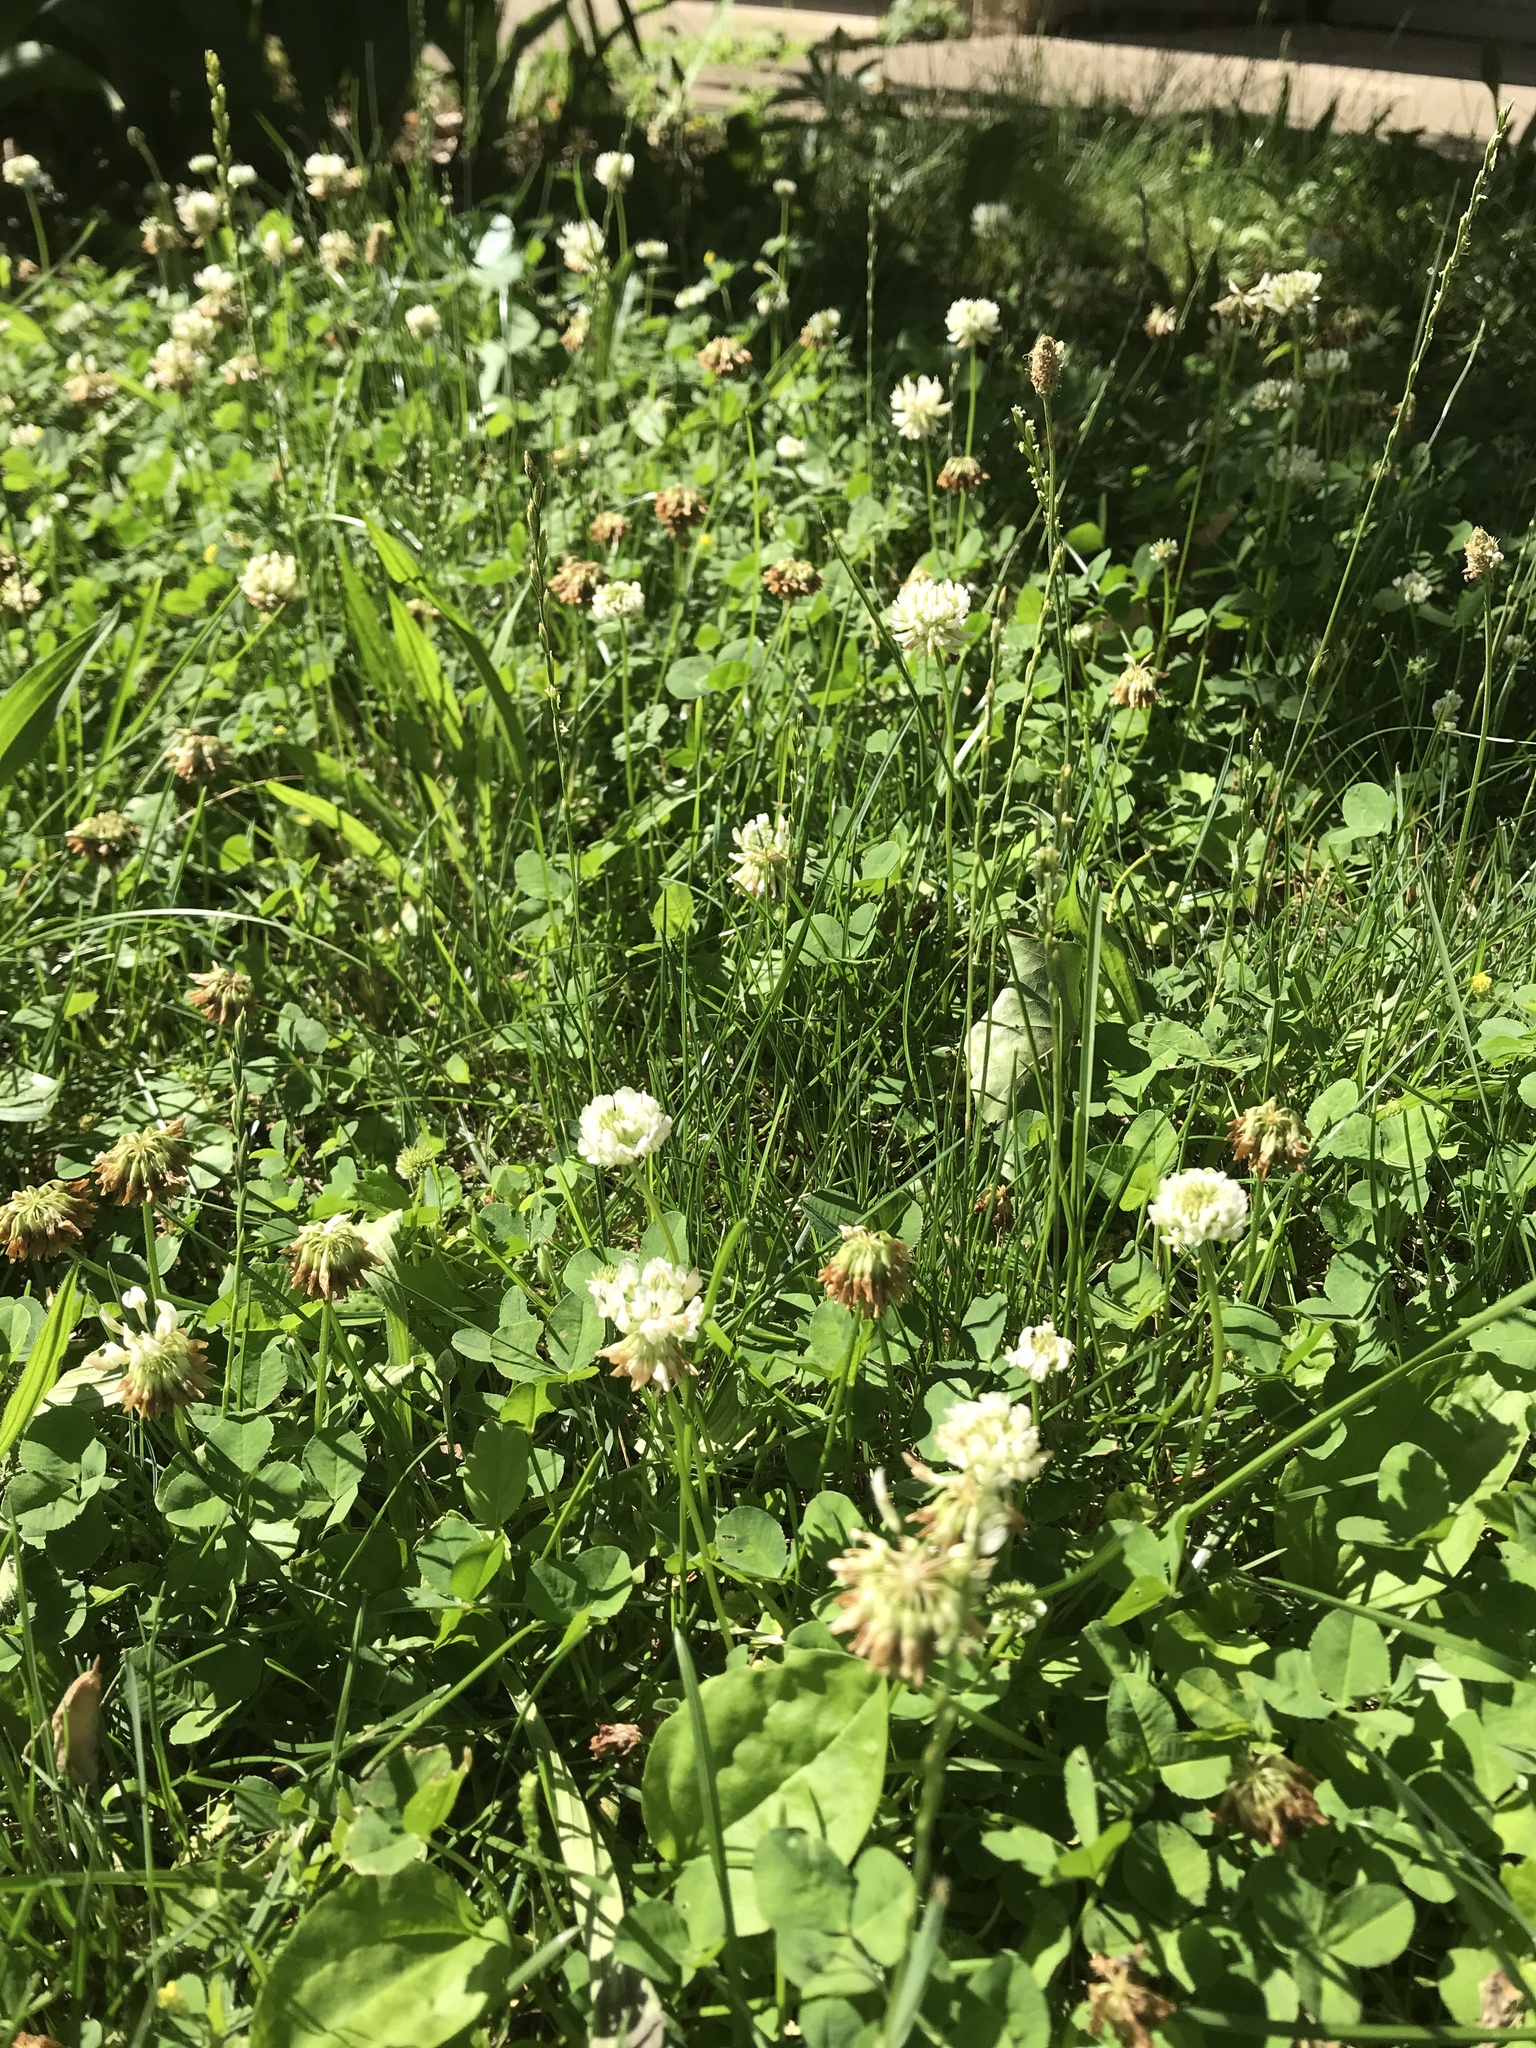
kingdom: Plantae
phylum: Tracheophyta
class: Magnoliopsida
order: Fabales
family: Fabaceae
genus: Trifolium
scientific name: Trifolium repens
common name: White clover
